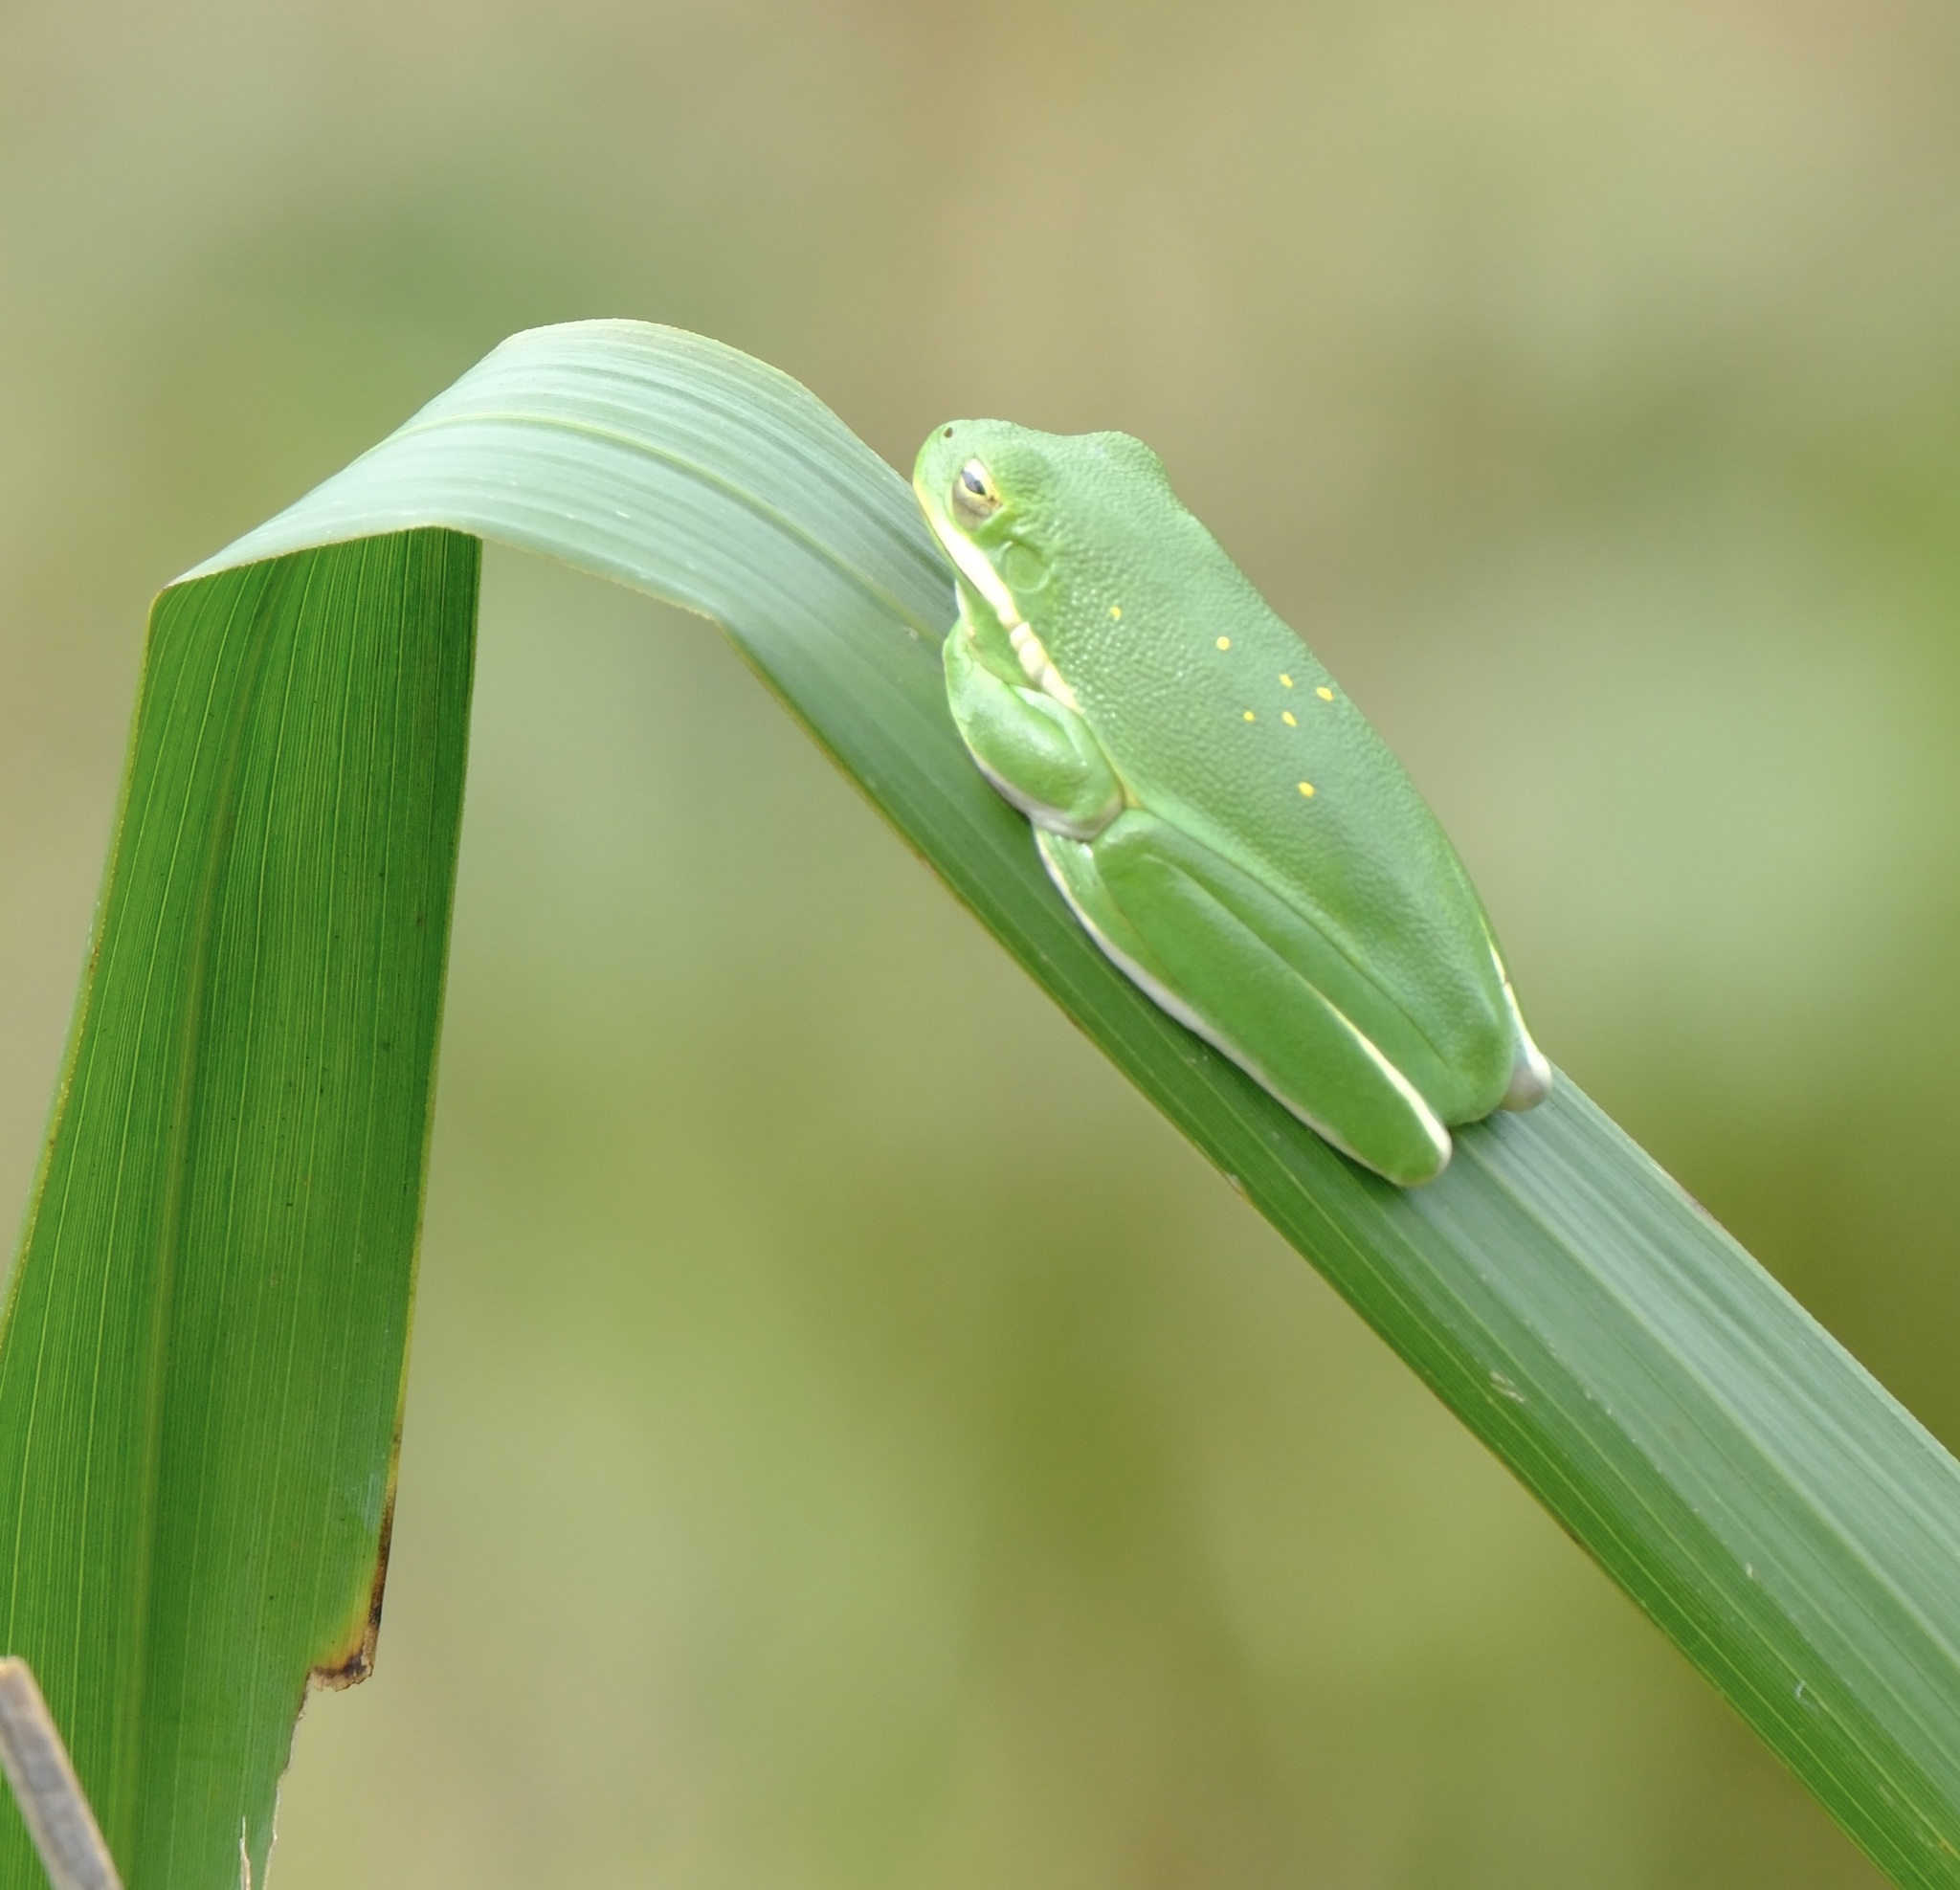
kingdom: Animalia
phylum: Chordata
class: Amphibia
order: Anura
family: Hylidae
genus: Dryophytes
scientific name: Dryophytes cinereus
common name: Green treefrog
